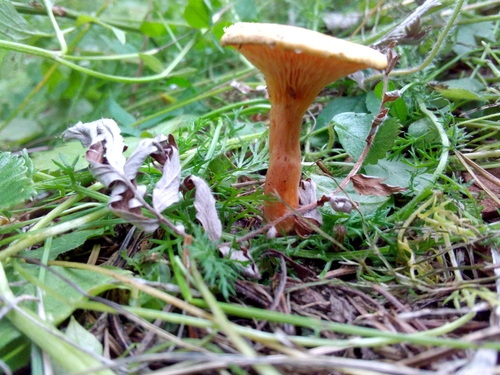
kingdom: Fungi
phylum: Basidiomycota
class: Agaricomycetes
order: Boletales
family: Hygrophoropsidaceae
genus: Hygrophoropsis
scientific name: Hygrophoropsis aurantiaca
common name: False chanterelle
